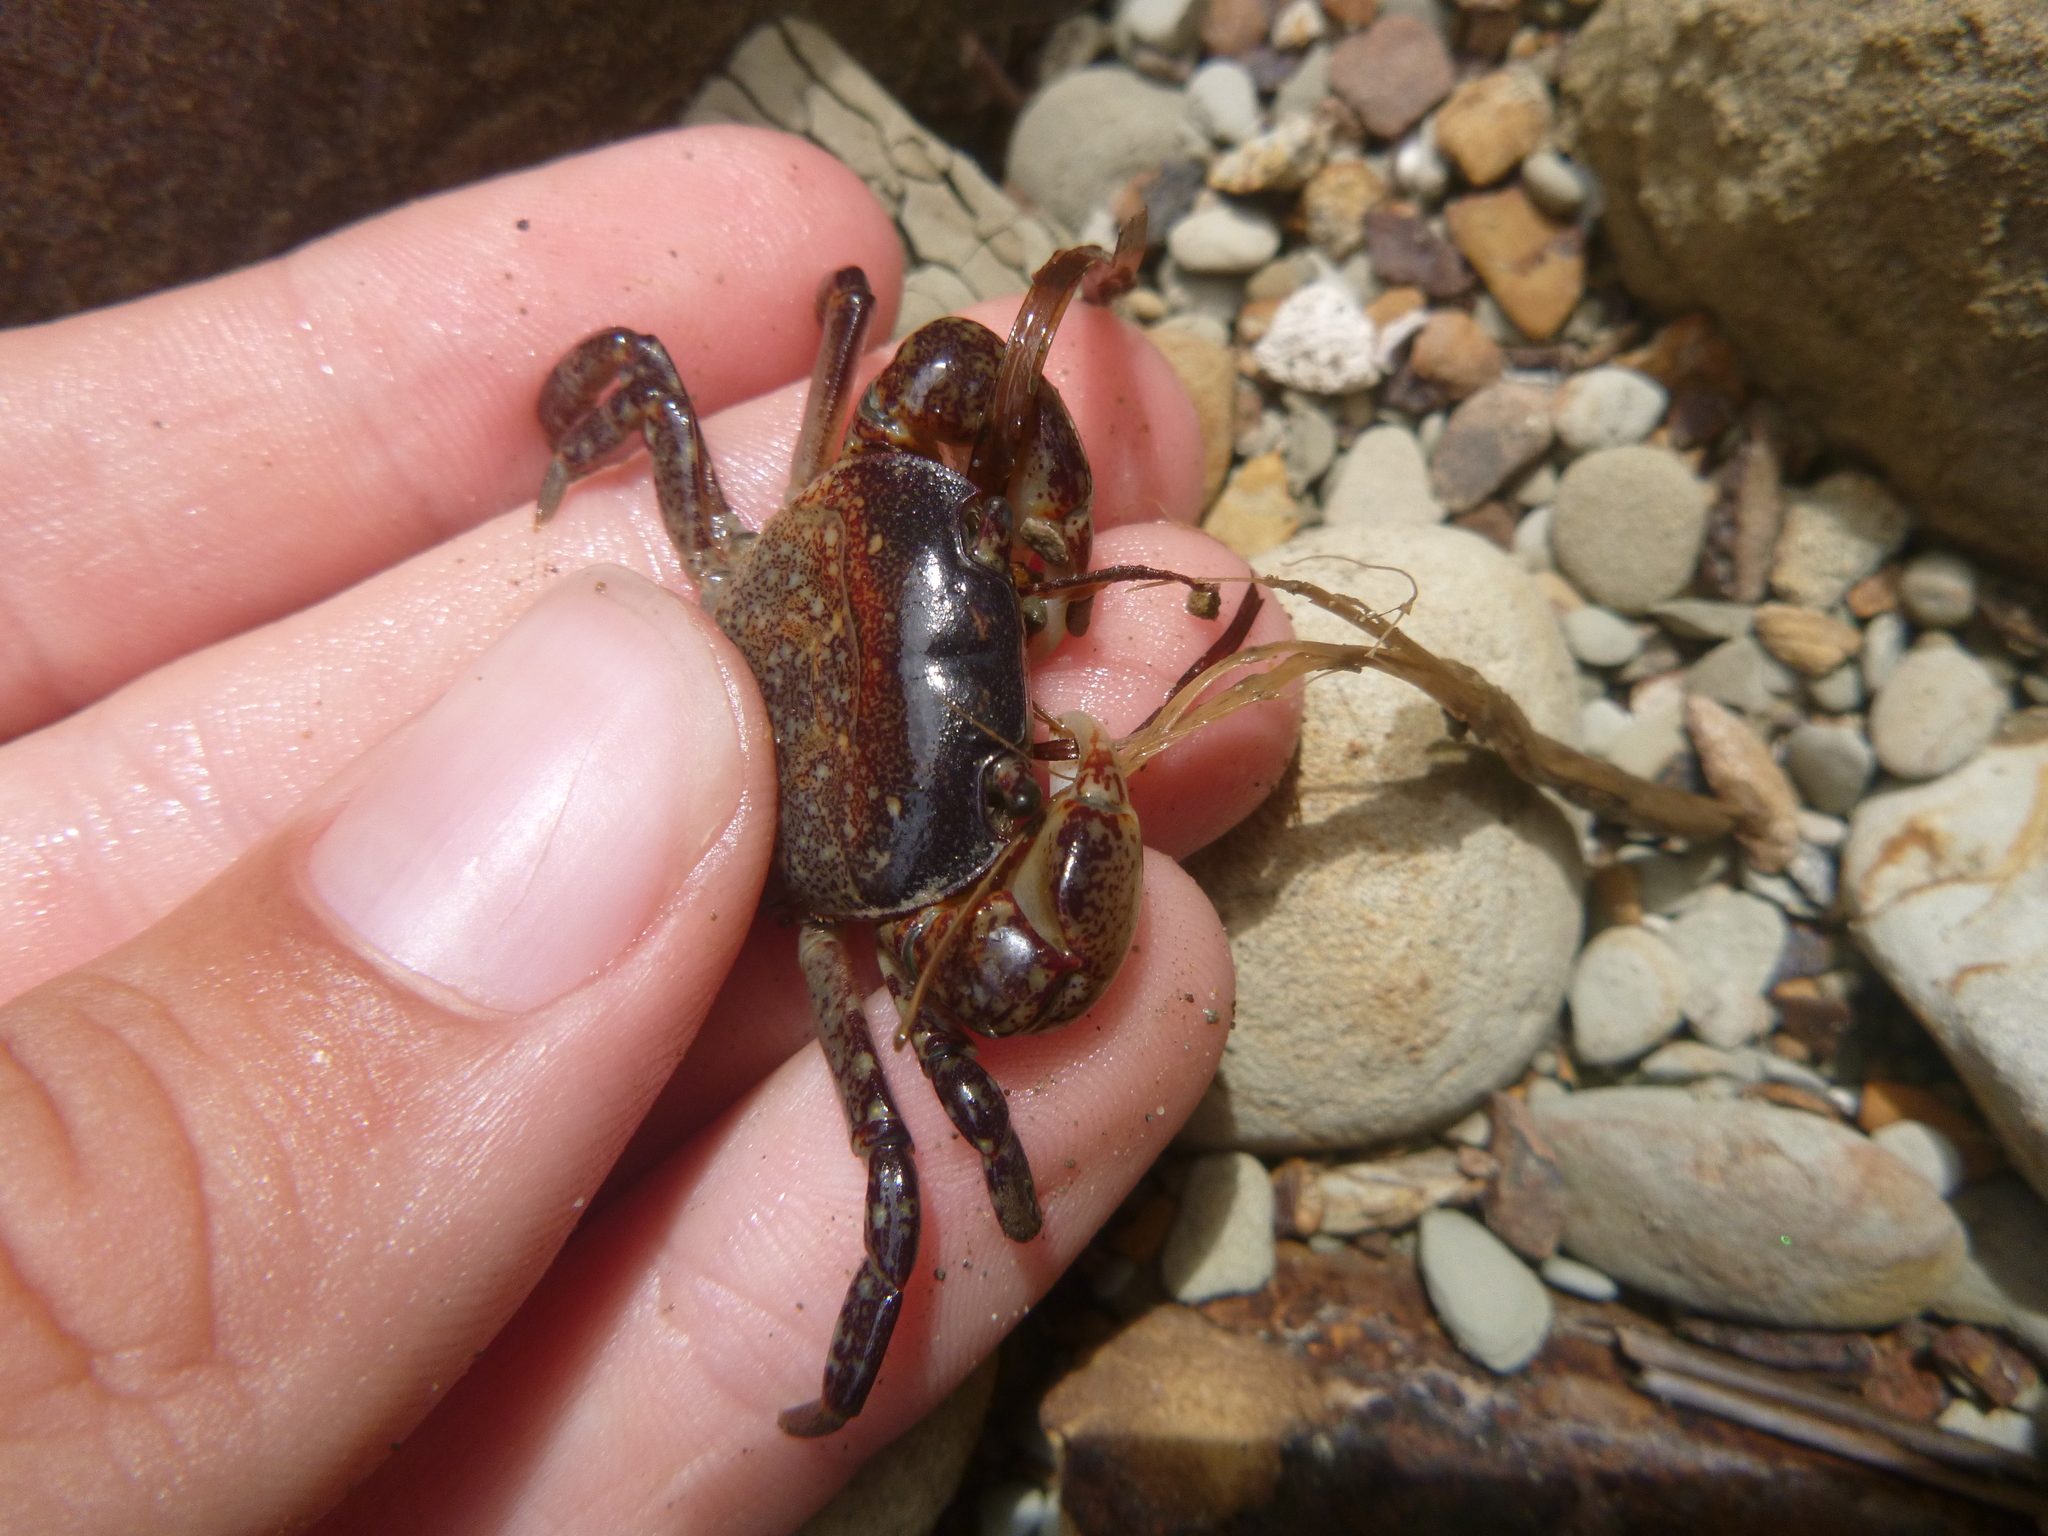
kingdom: Animalia
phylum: Arthropoda
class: Malacostraca
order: Decapoda
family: Varunidae
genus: Cyclograpsus
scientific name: Cyclograpsus lavauxi
